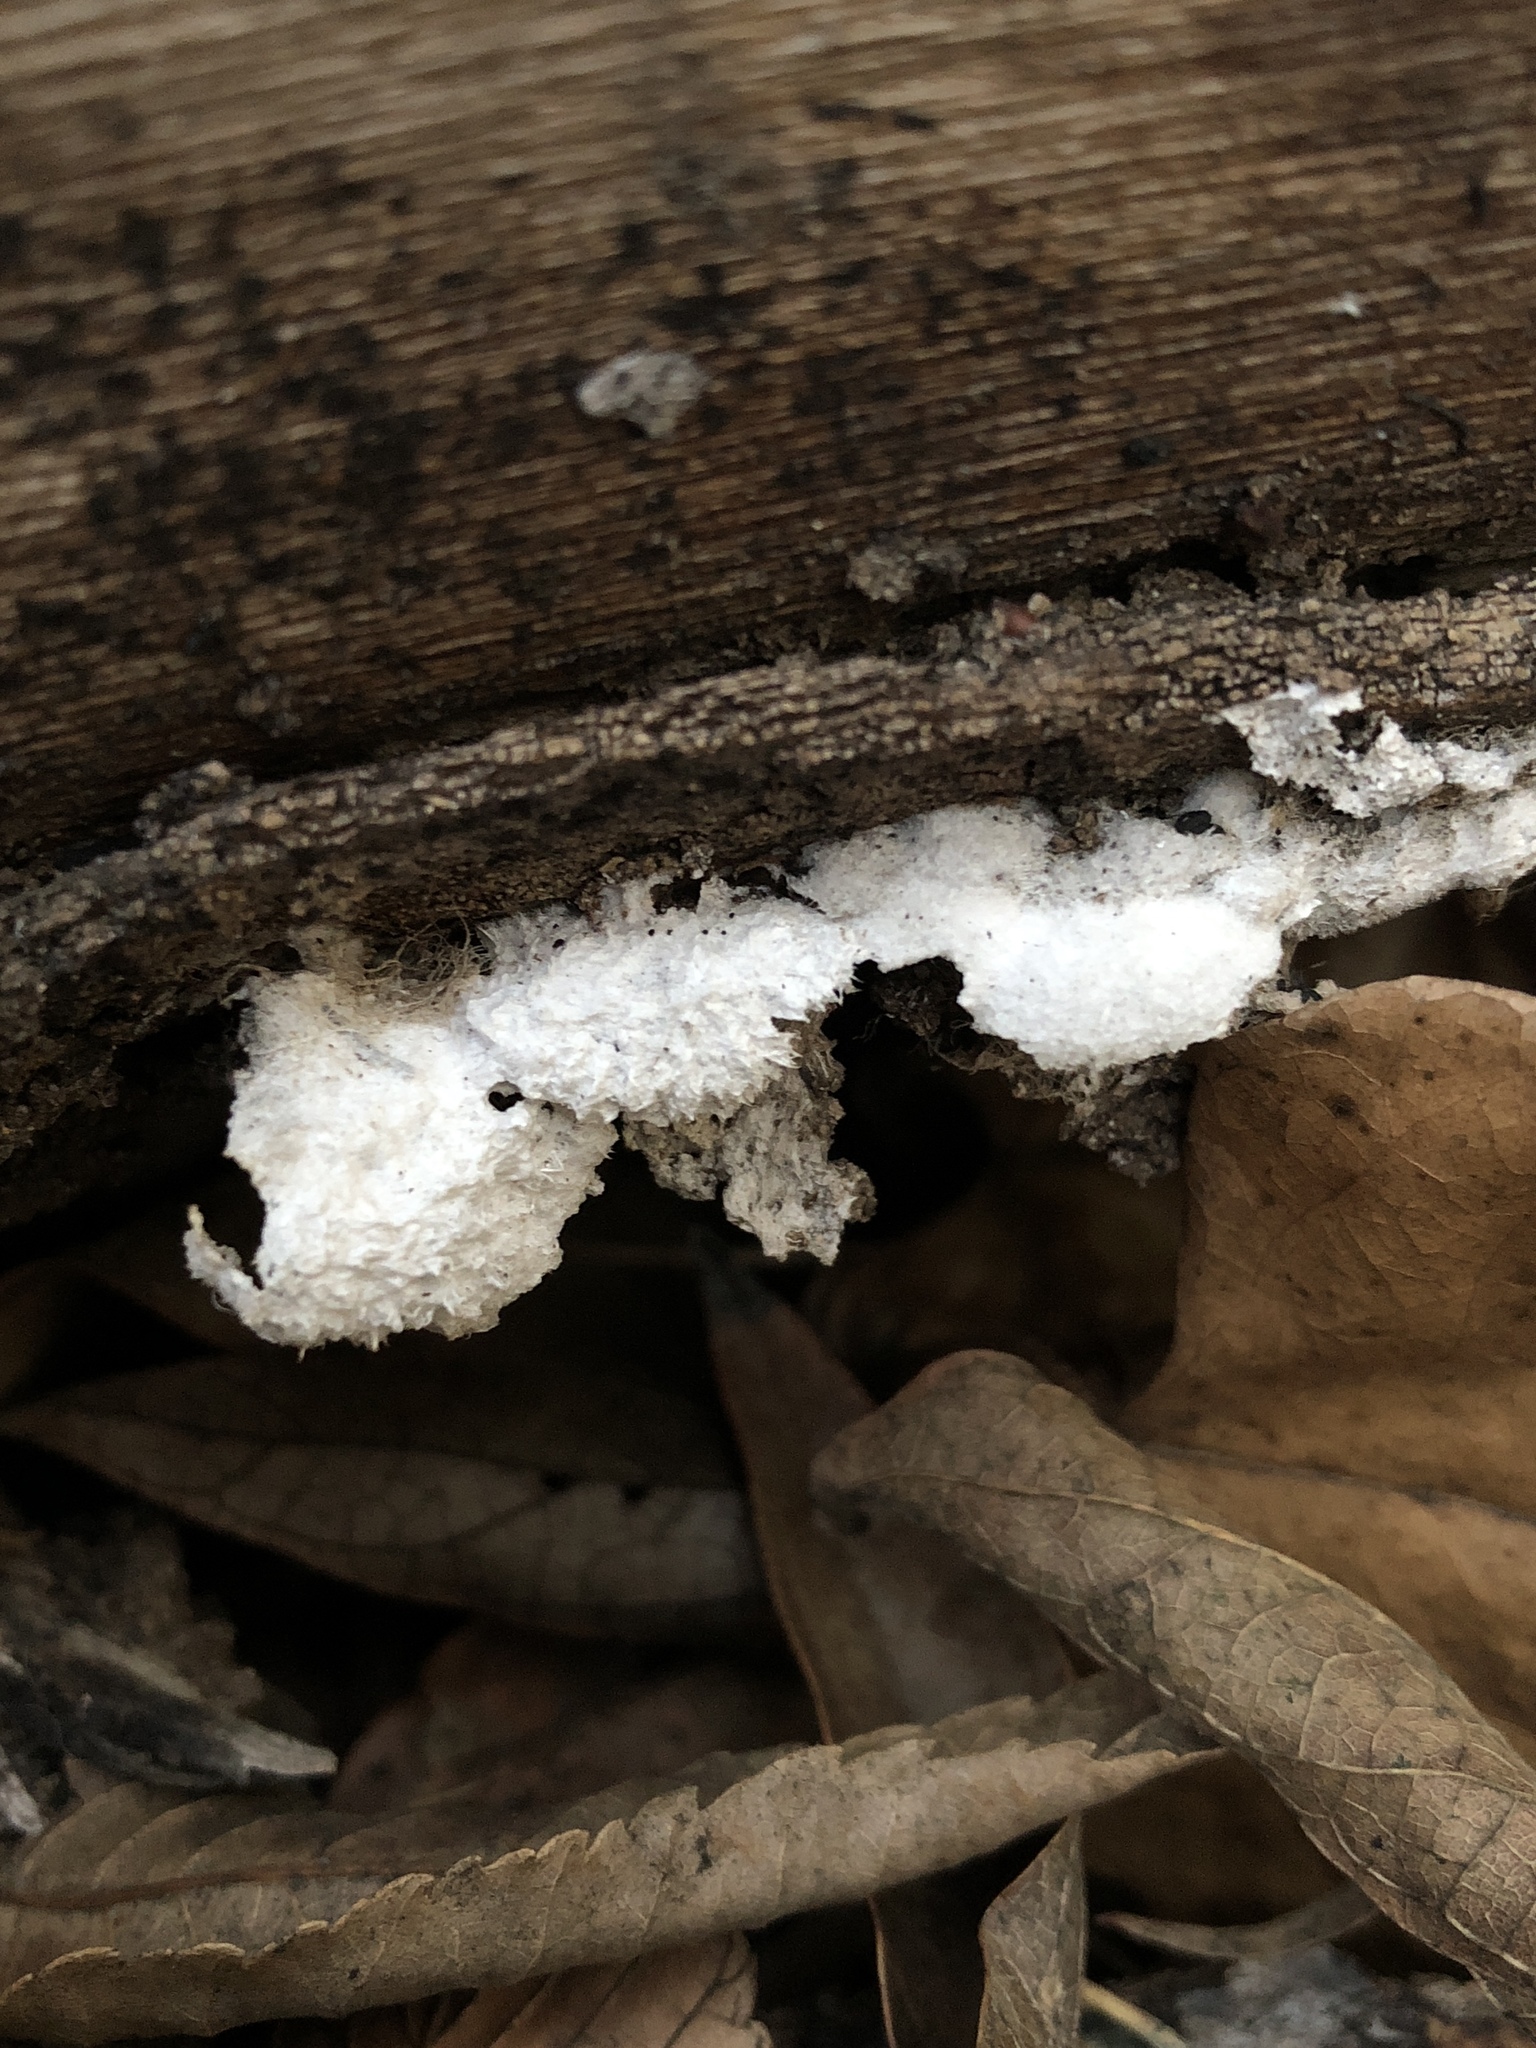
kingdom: Fungi
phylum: Basidiomycota
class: Agaricomycetes
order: Agaricales
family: Schizophyllaceae
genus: Schizophyllum
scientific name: Schizophyllum commune
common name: Common porecrust
